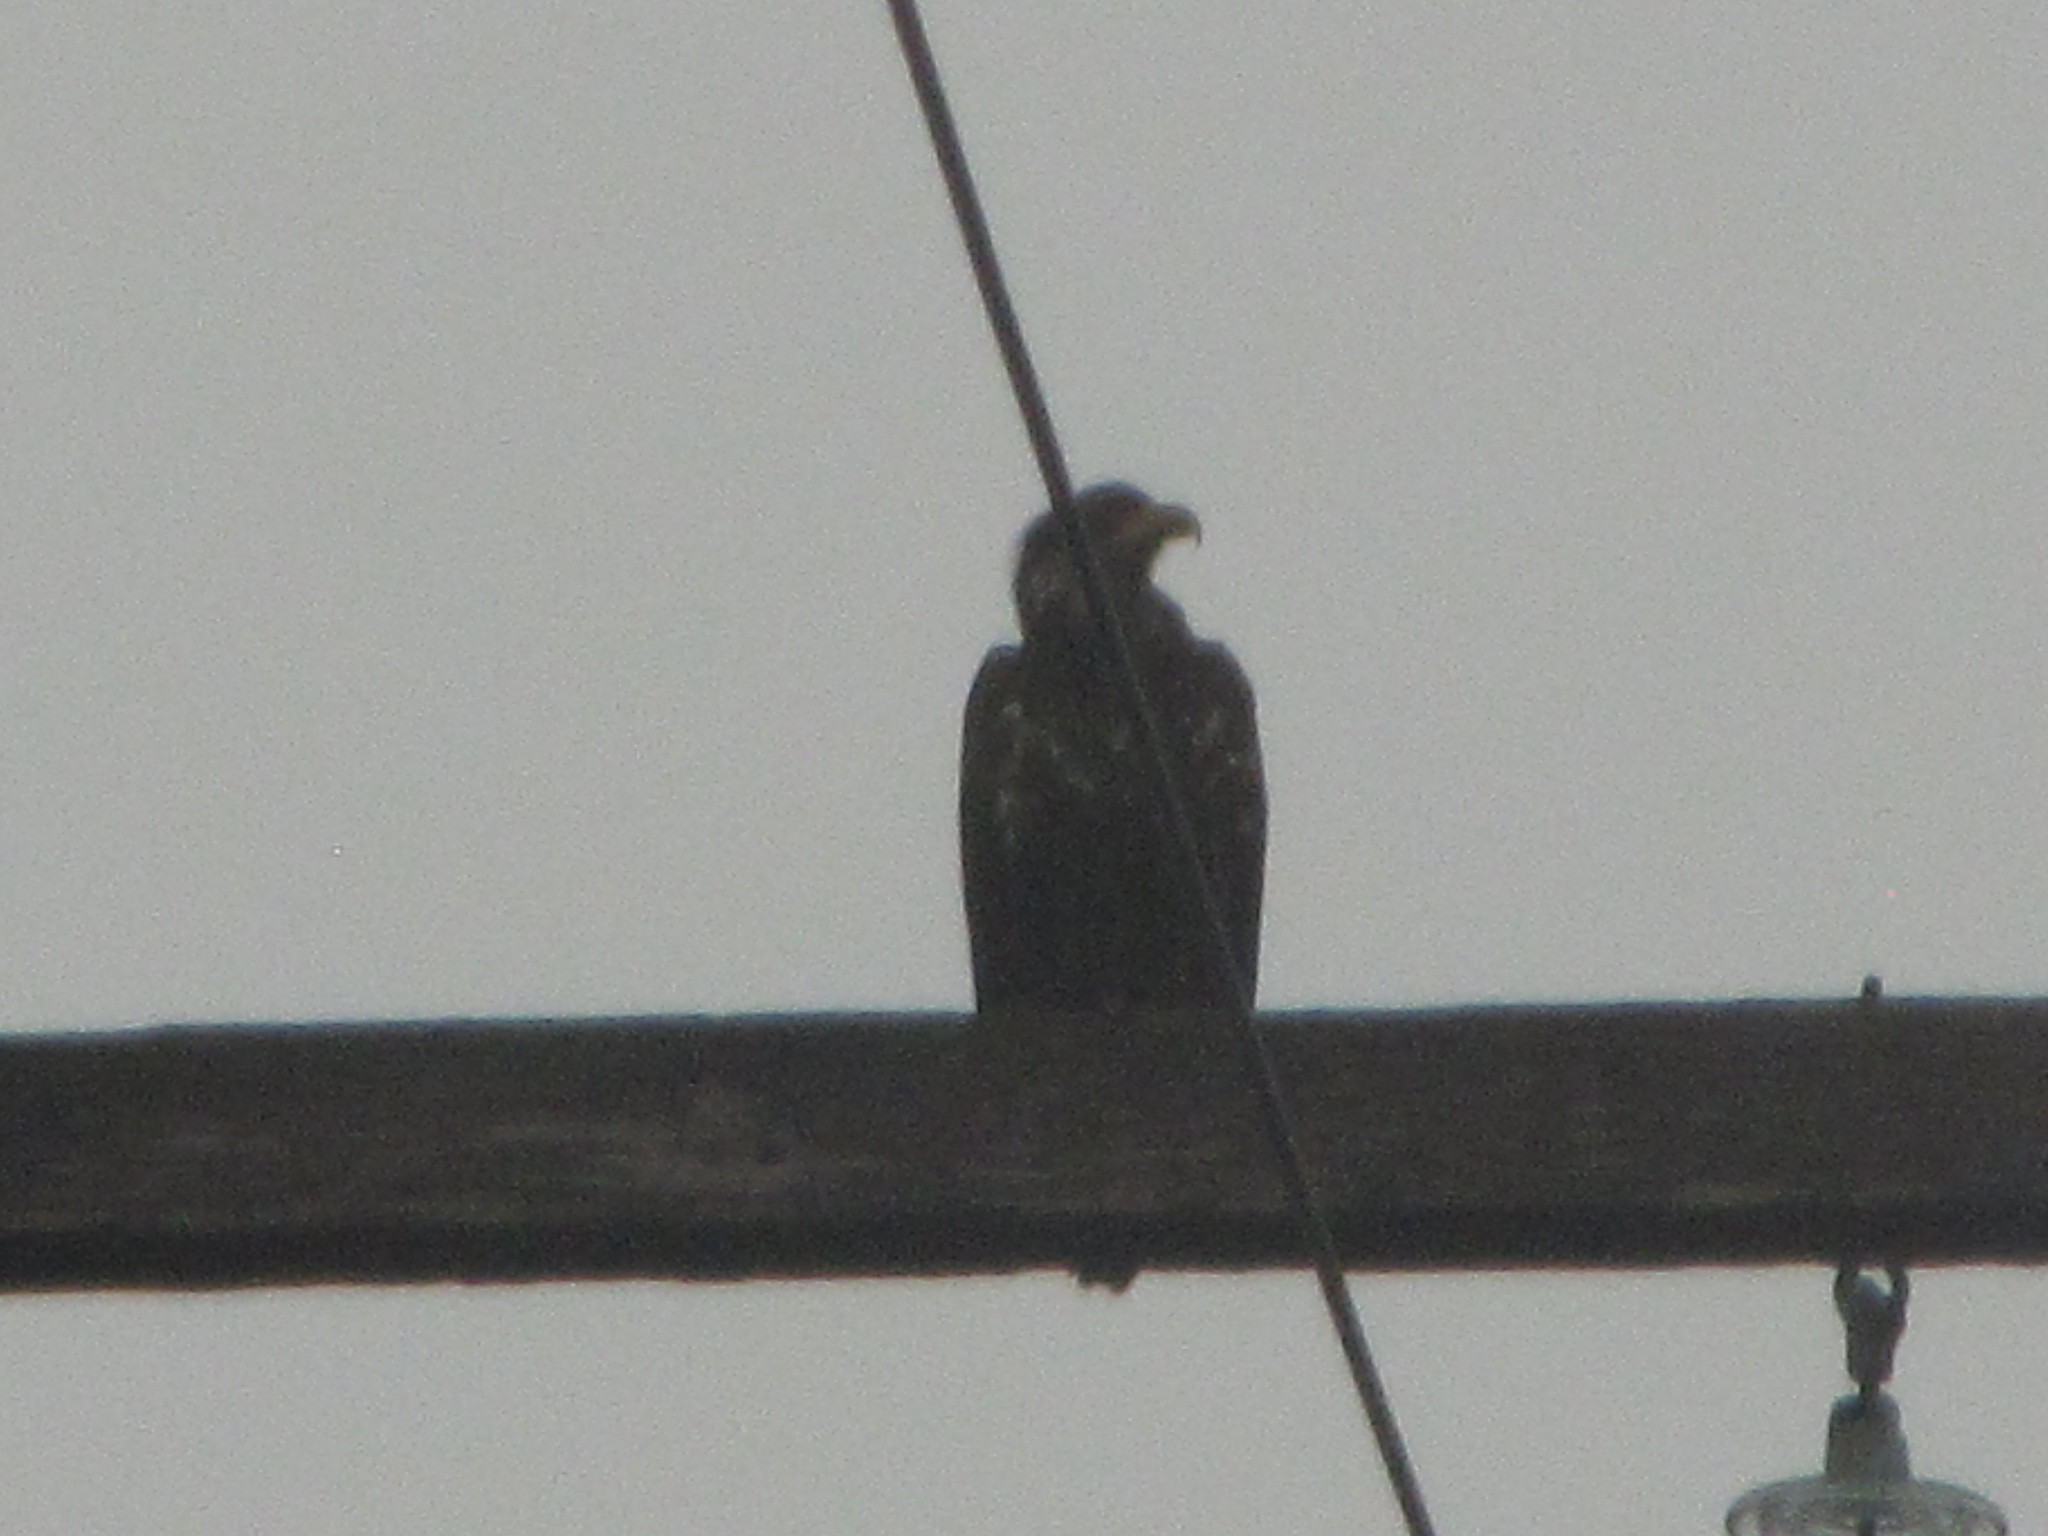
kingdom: Animalia
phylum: Chordata
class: Aves
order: Accipitriformes
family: Accipitridae
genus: Haliaeetus
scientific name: Haliaeetus leucocephalus
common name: Bald eagle
